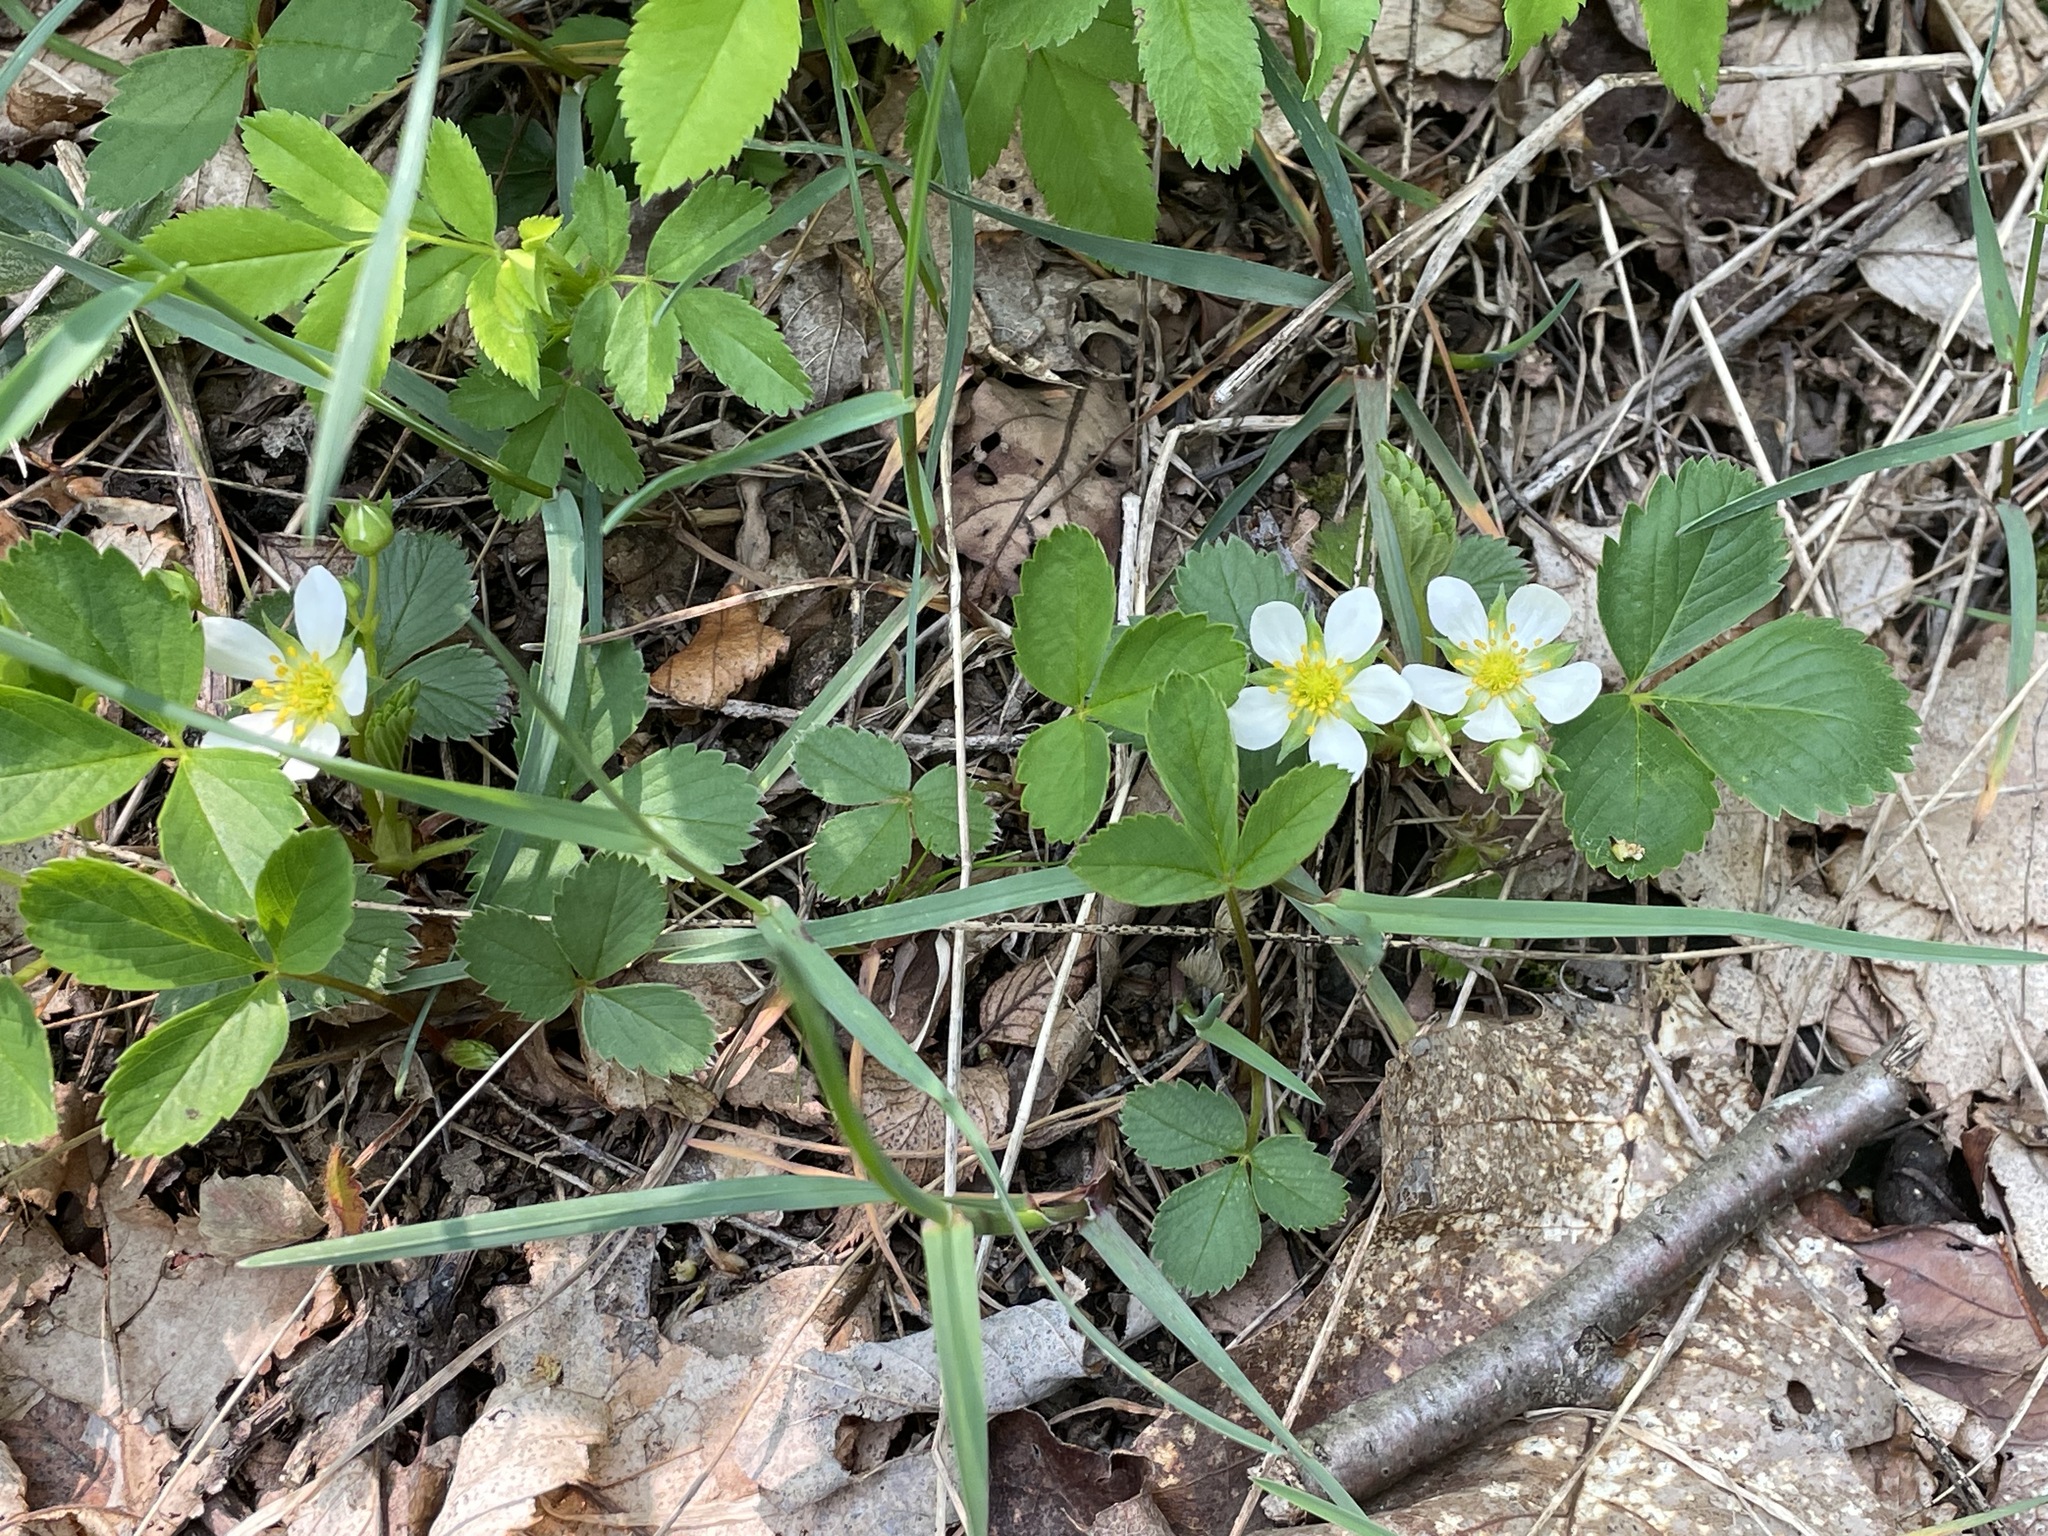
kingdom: Plantae
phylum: Tracheophyta
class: Magnoliopsida
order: Rosales
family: Rosaceae
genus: Fragaria
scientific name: Fragaria virginiana
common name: Thickleaved wild strawberry
